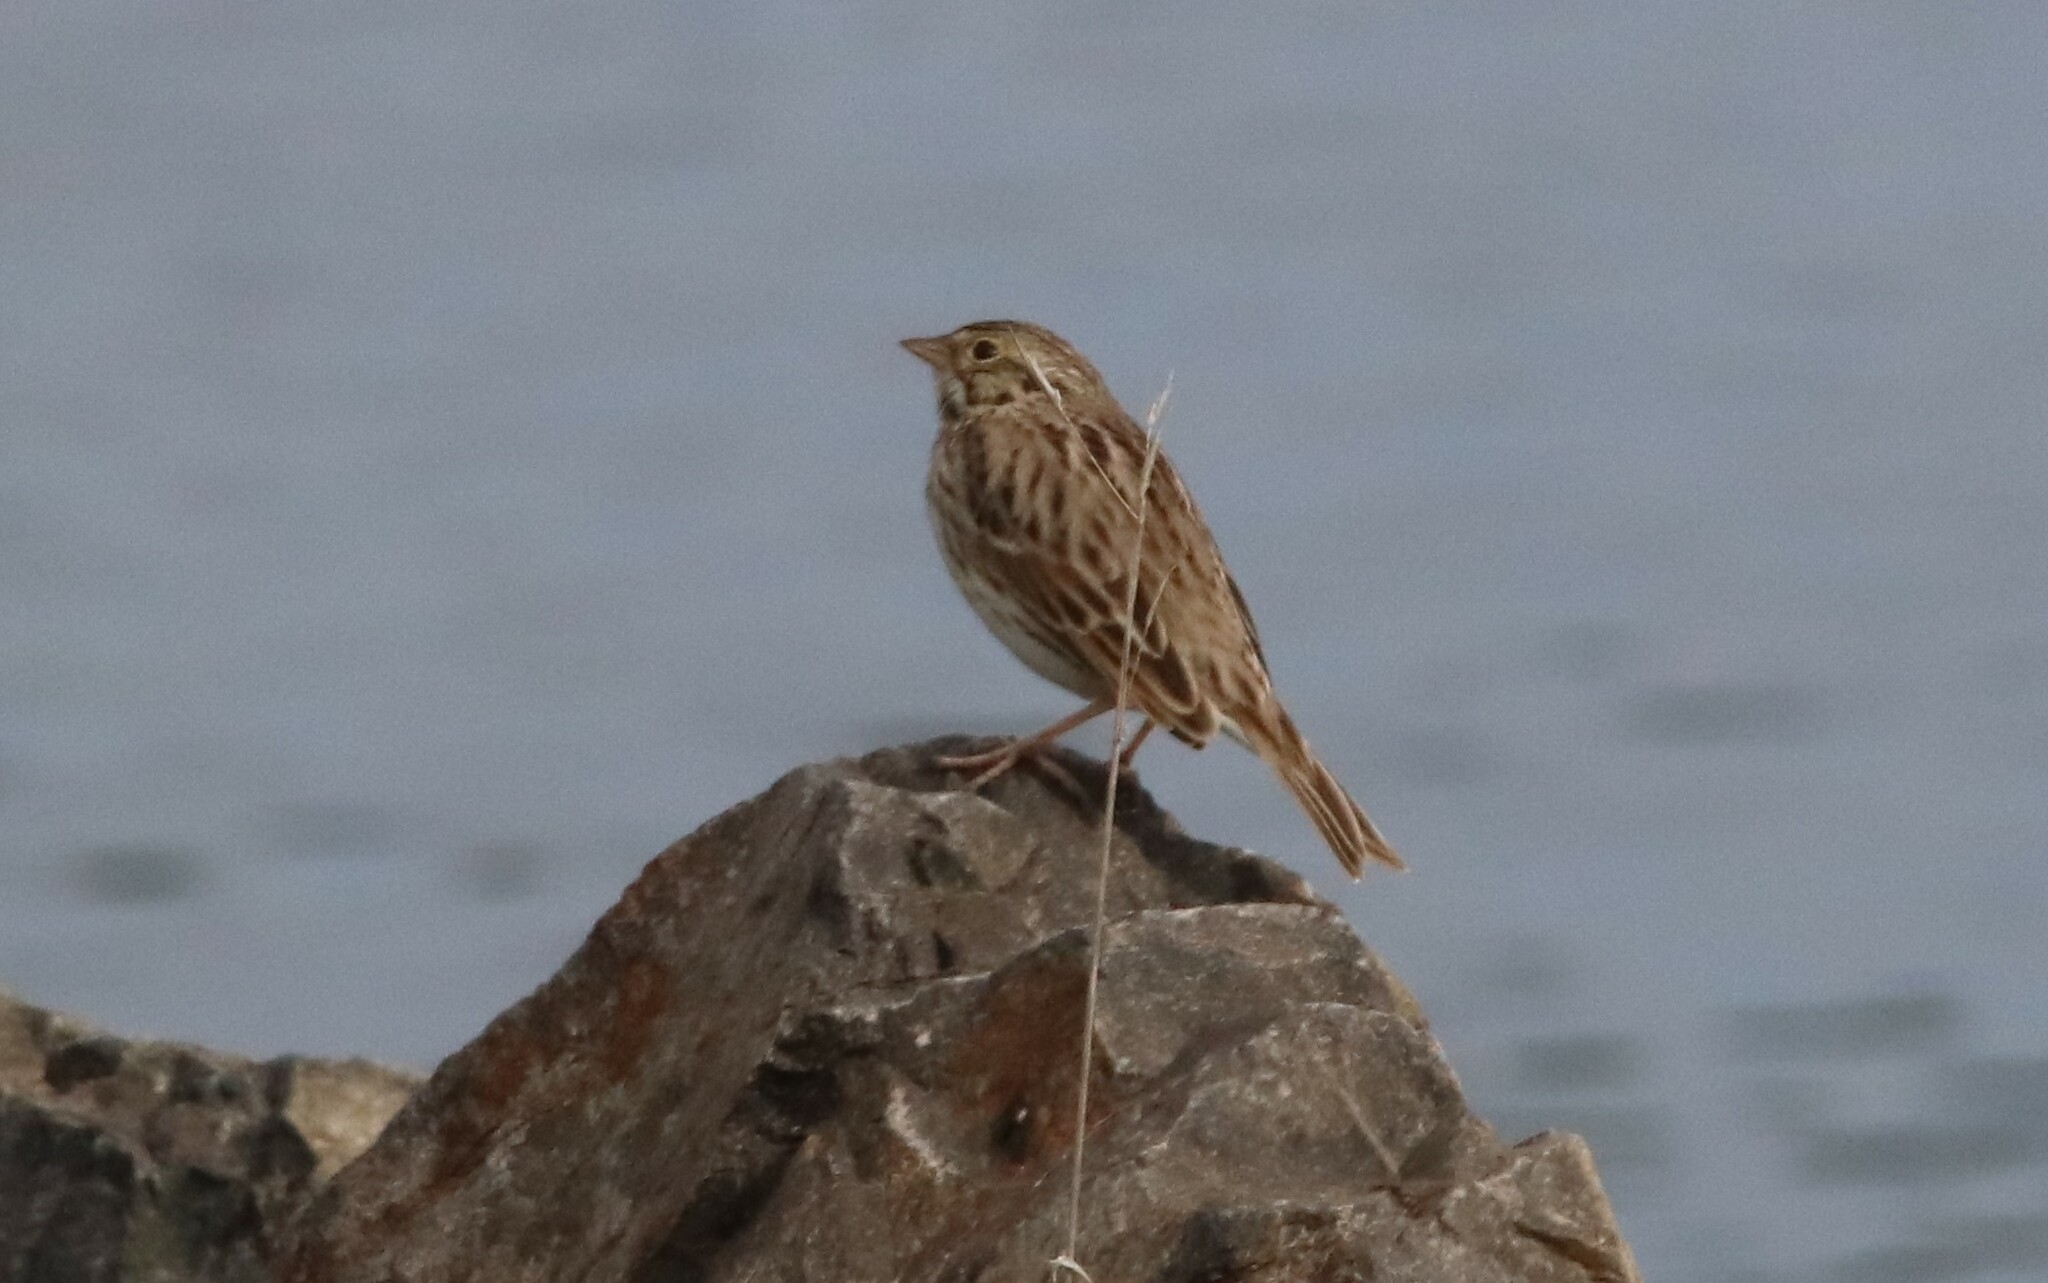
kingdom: Animalia
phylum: Chordata
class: Aves
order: Passeriformes
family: Passerellidae
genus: Passerculus
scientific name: Passerculus sandwichensis
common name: Savannah sparrow
